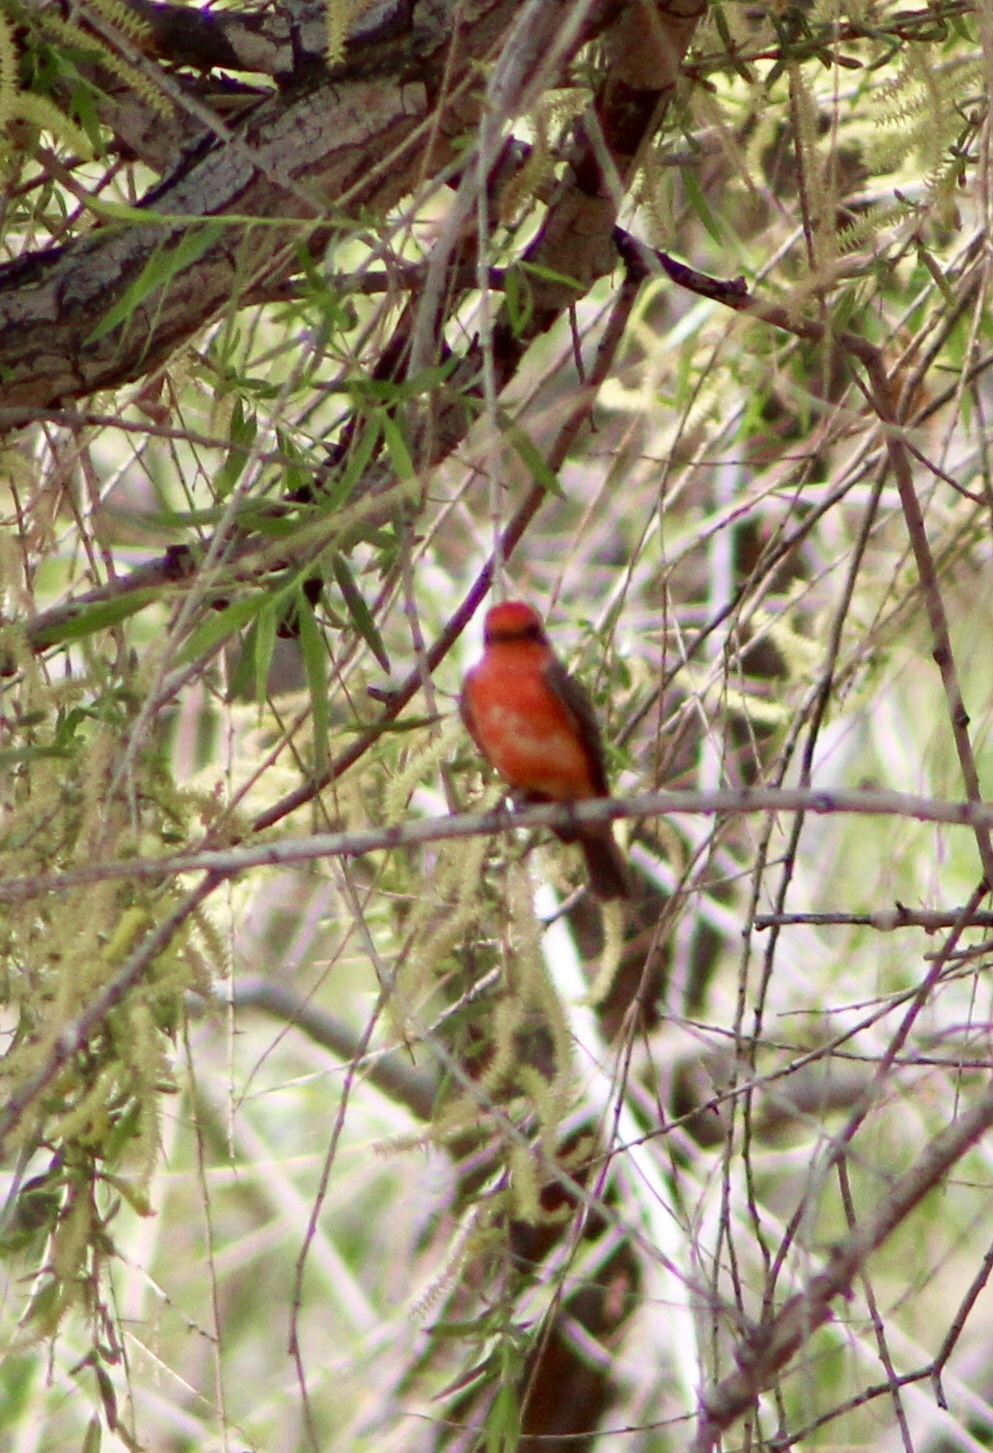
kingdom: Animalia
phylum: Chordata
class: Aves
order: Passeriformes
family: Tyrannidae
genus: Pyrocephalus
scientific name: Pyrocephalus rubinus
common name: Vermilion flycatcher
